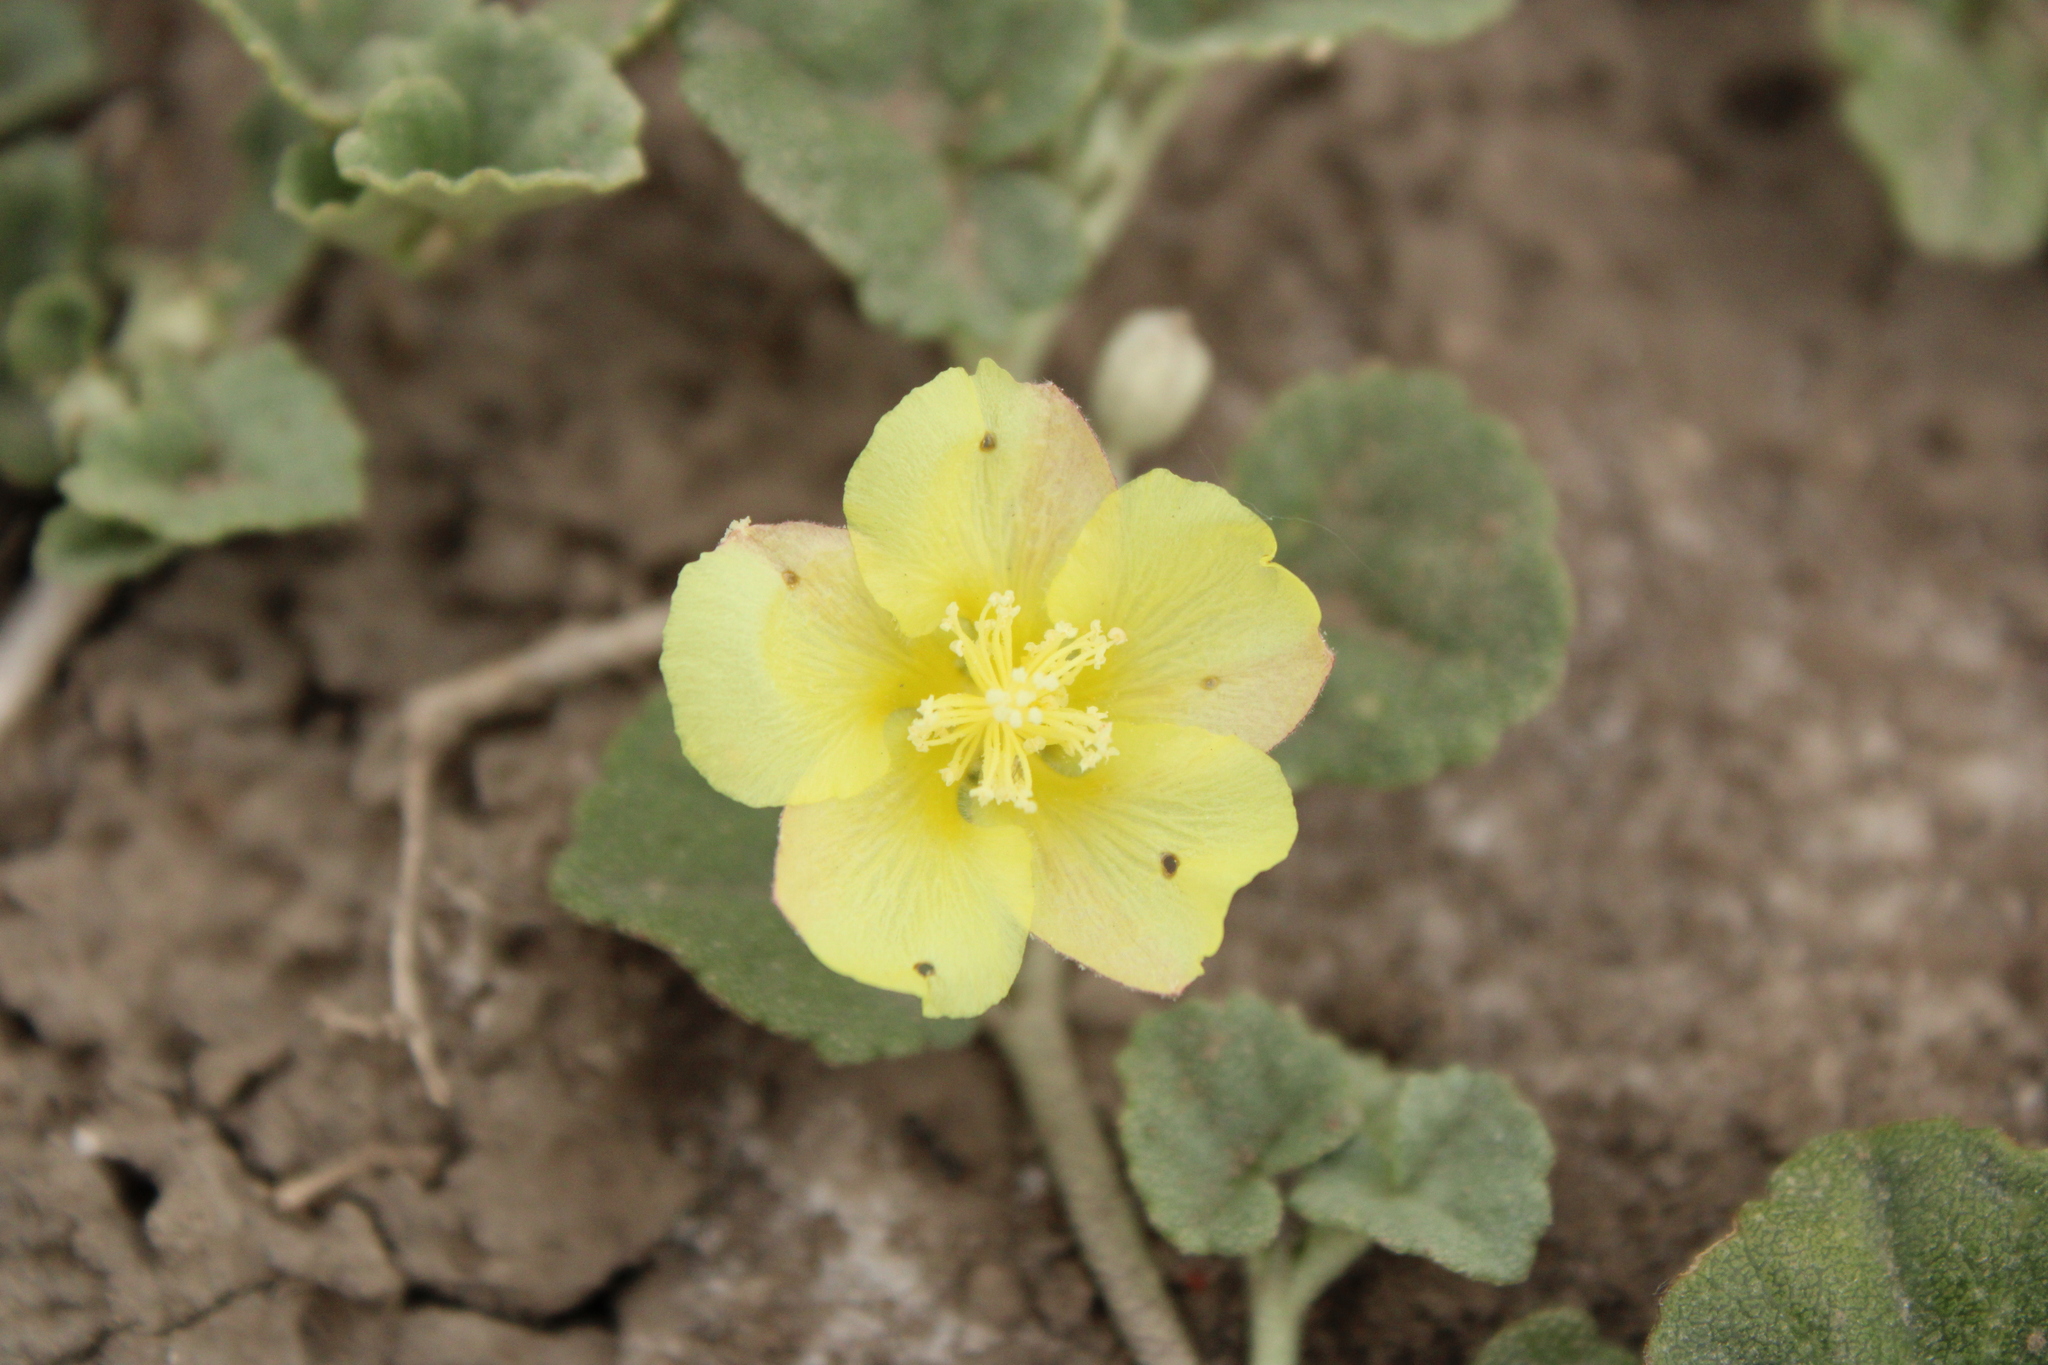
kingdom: Plantae
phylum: Tracheophyta
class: Magnoliopsida
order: Malvales
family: Malvaceae
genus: Malvella
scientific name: Malvella leprosa
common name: Alkali-mallow
